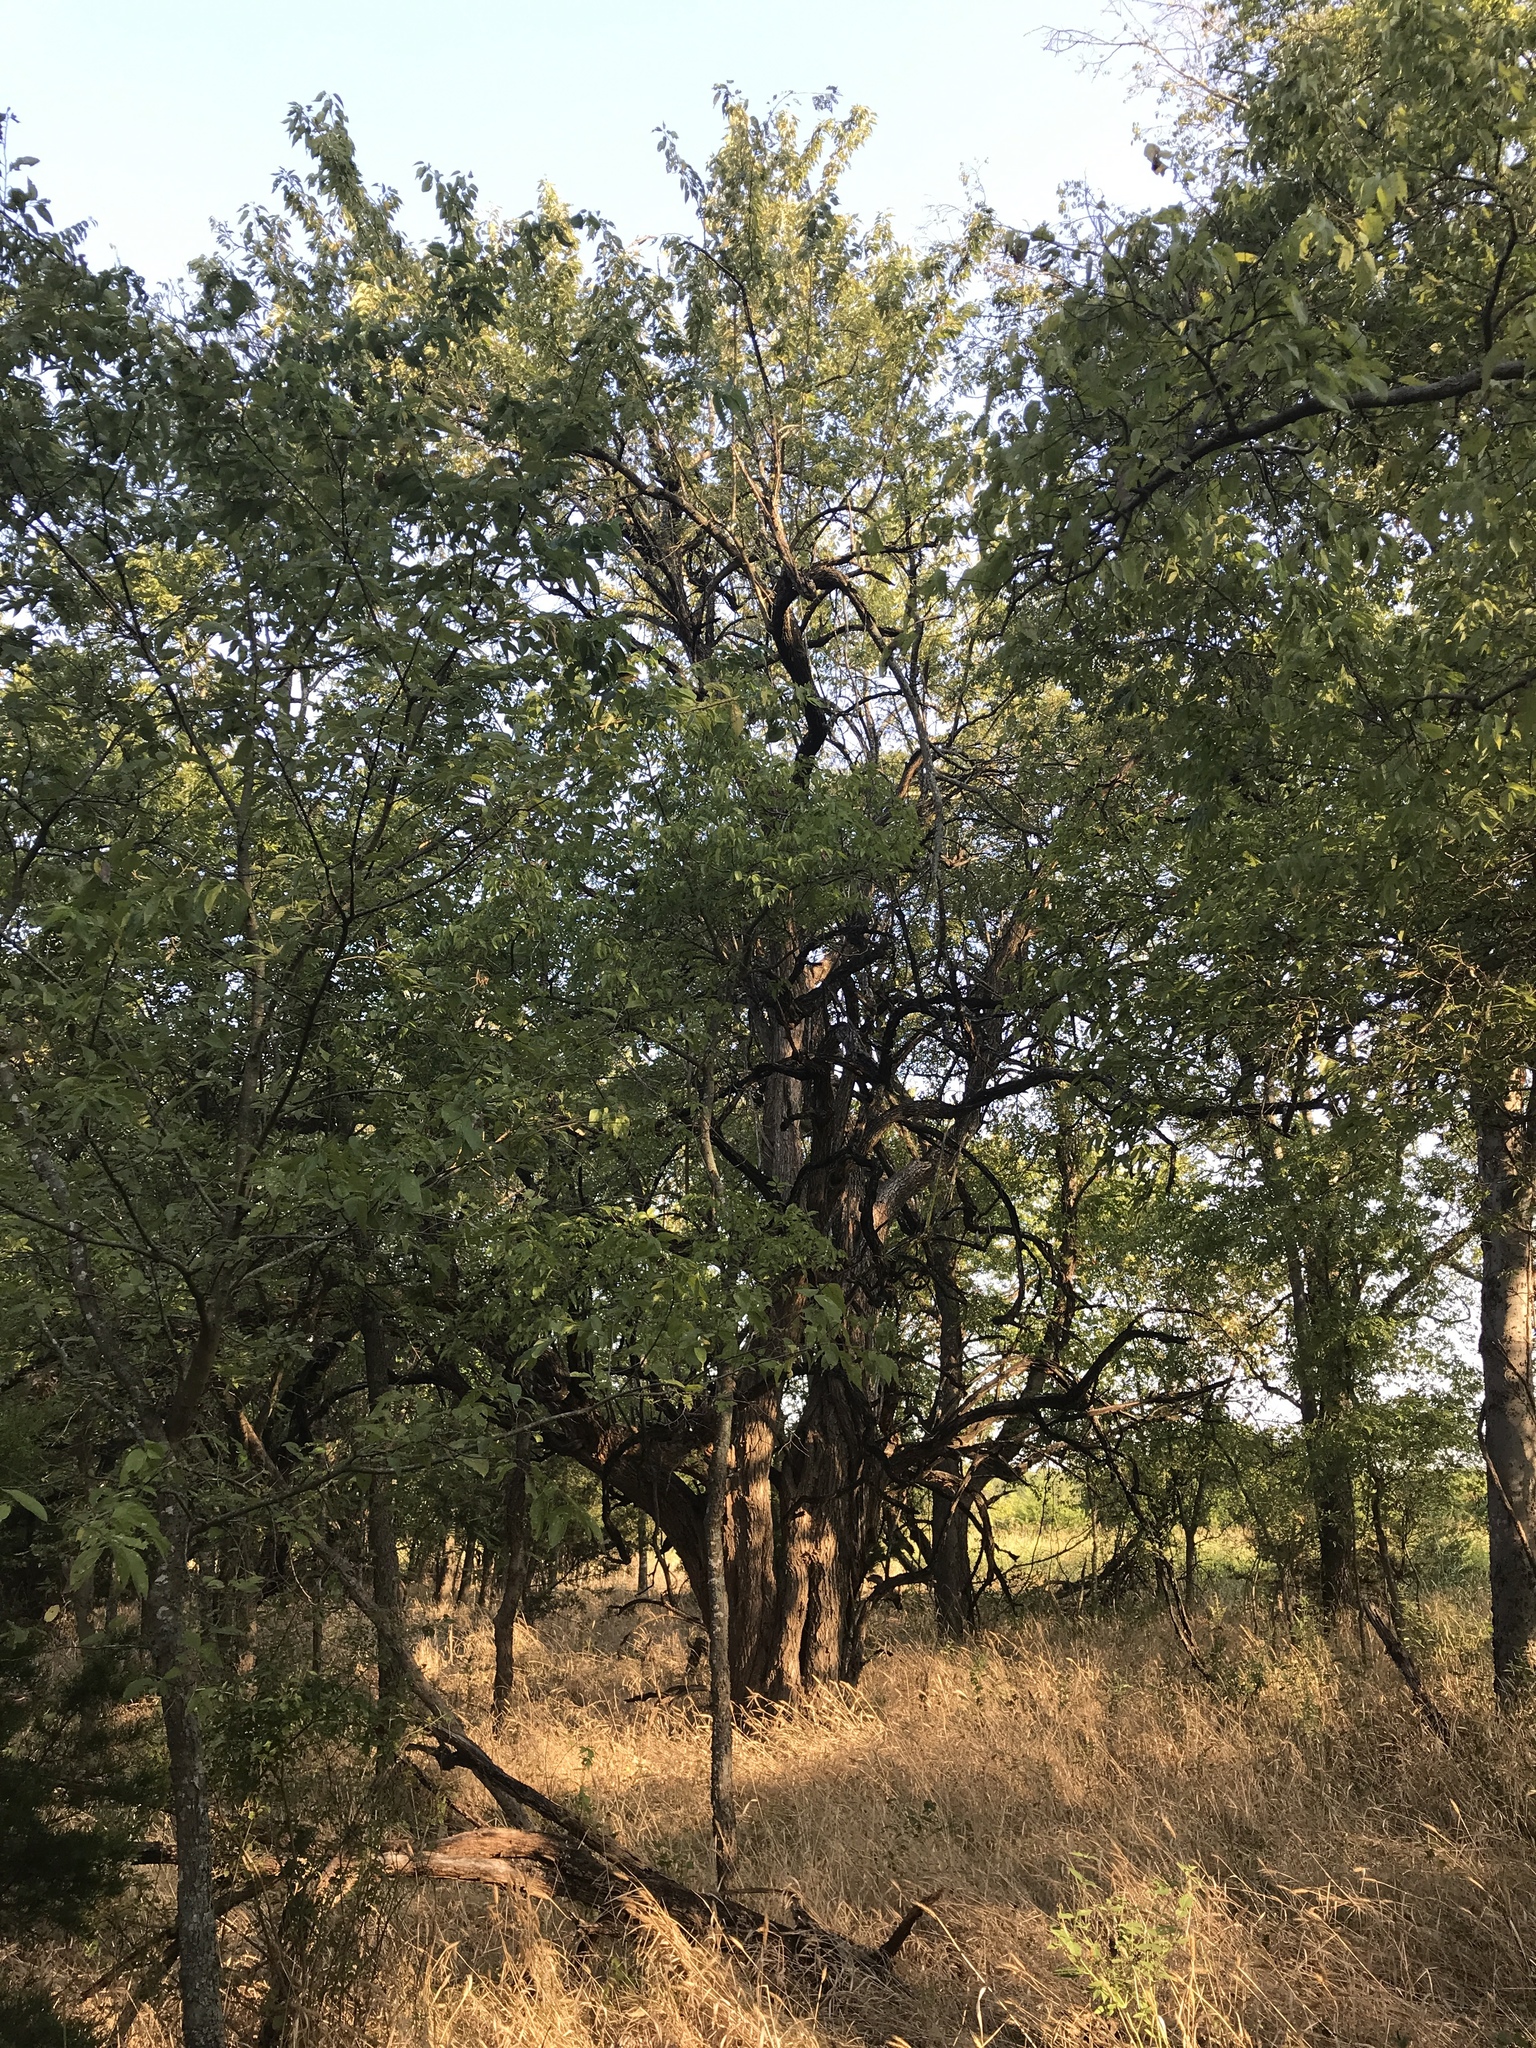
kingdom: Plantae
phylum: Tracheophyta
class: Magnoliopsida
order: Rosales
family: Moraceae
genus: Maclura
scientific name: Maclura pomifera
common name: Osage-orange
